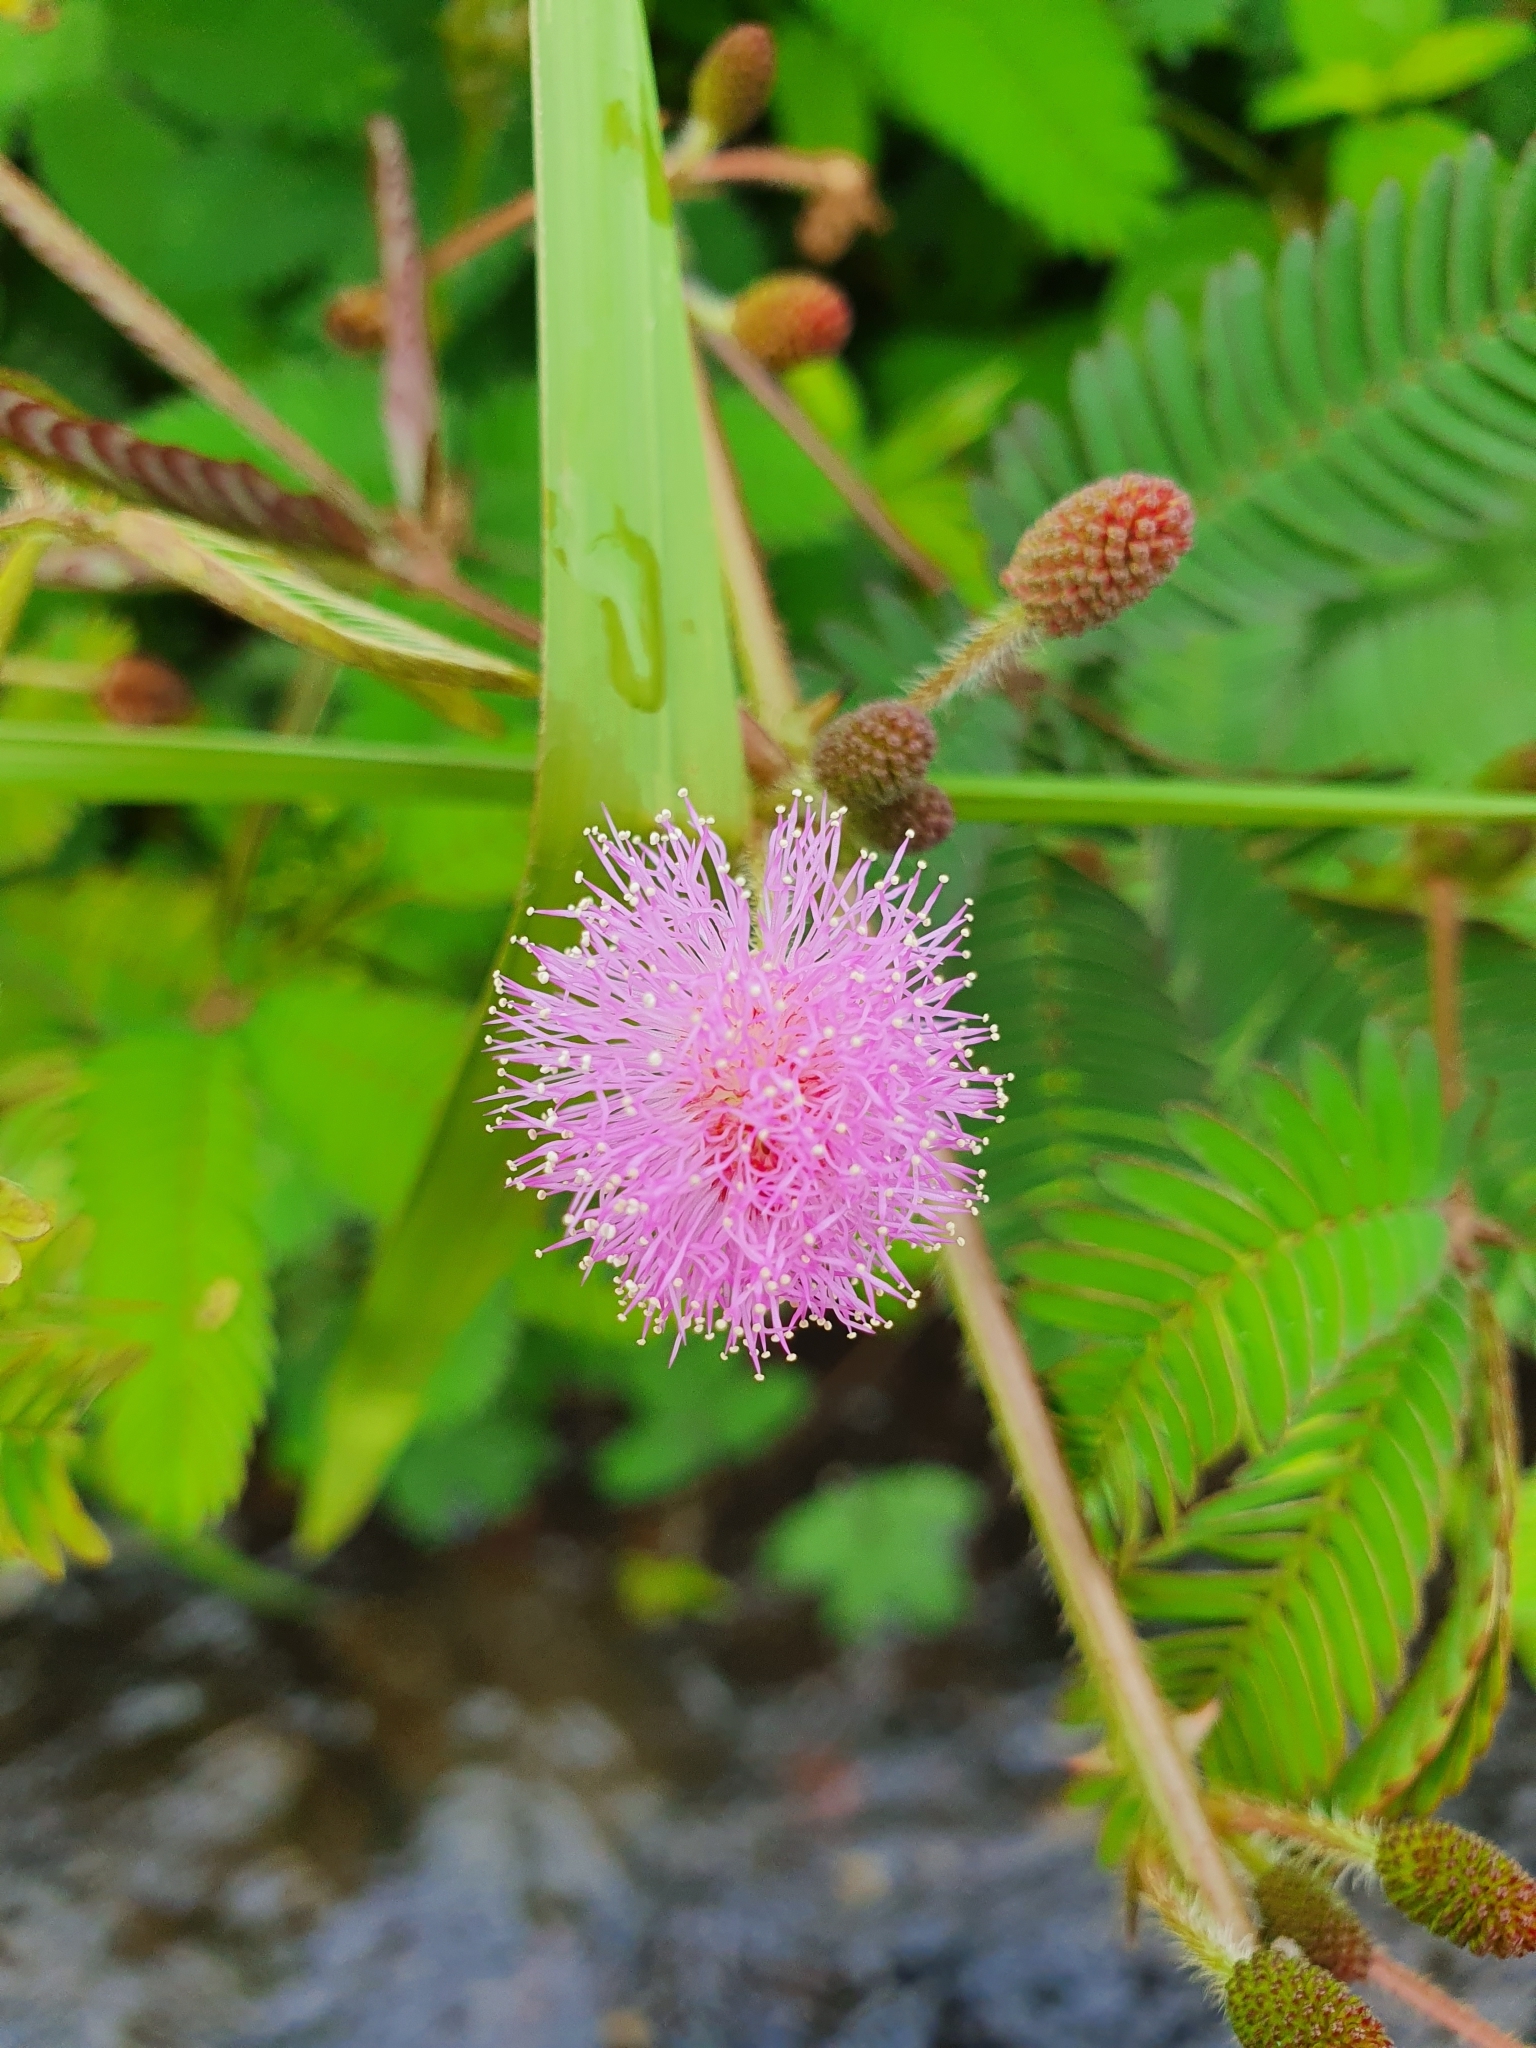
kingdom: Plantae
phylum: Tracheophyta
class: Magnoliopsida
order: Fabales
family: Fabaceae
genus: Mimosa
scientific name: Mimosa pudica
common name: Sensitive plant
